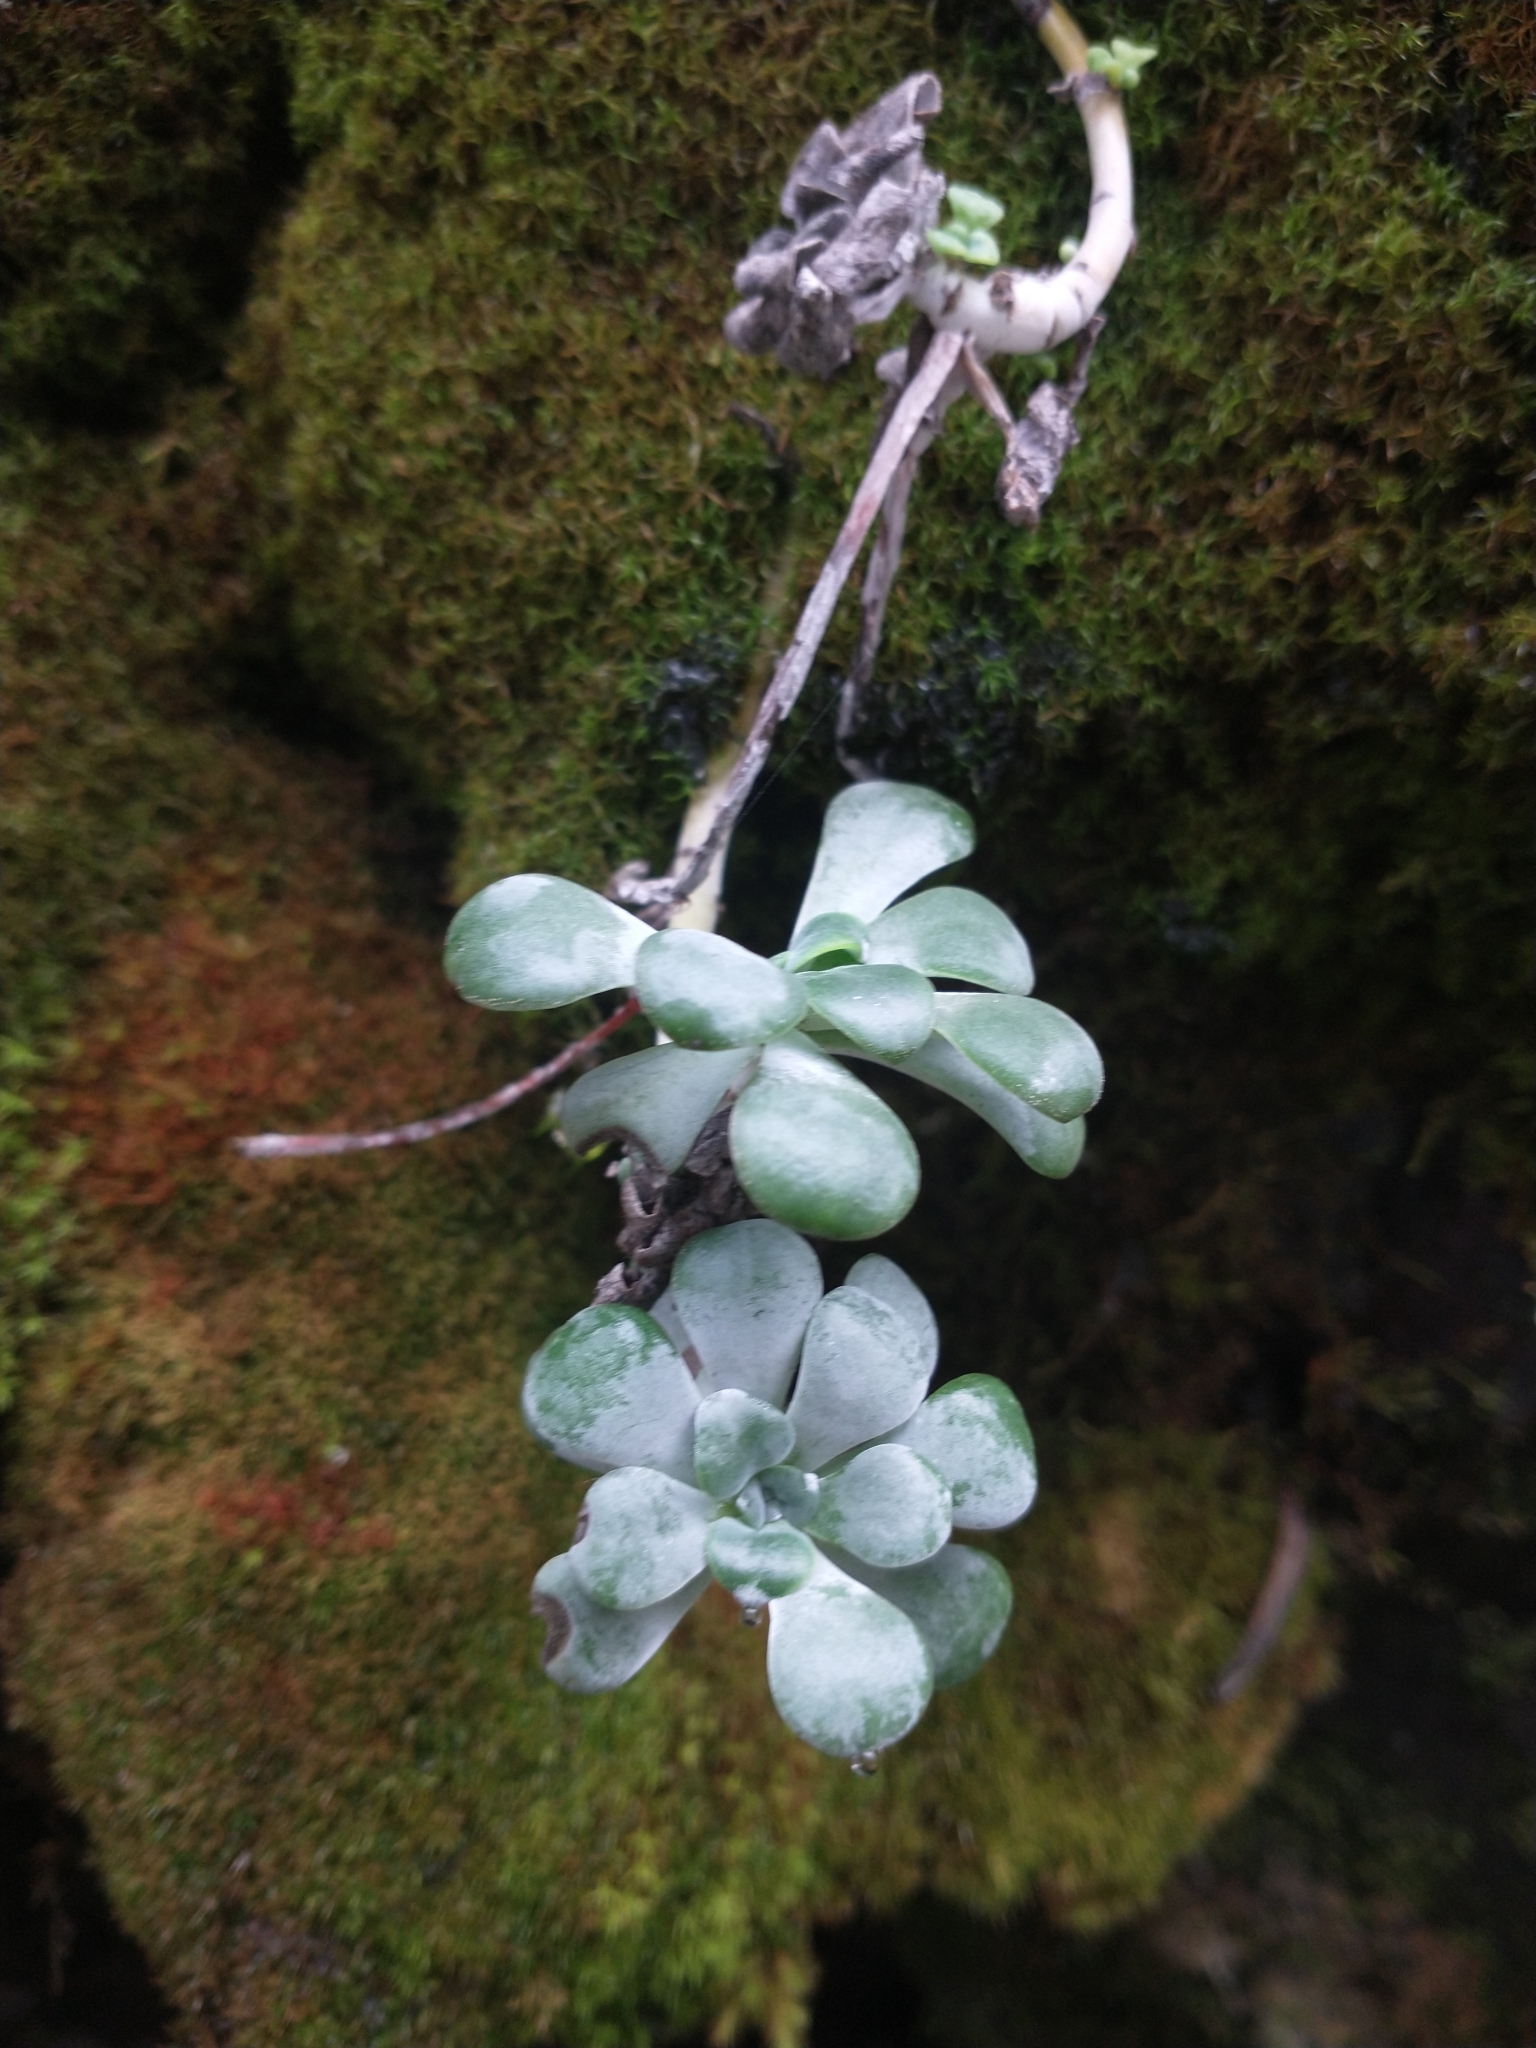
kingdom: Plantae
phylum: Tracheophyta
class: Magnoliopsida
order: Saxifragales
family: Crassulaceae
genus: Sedum
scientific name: Sedum spathulifolium
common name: Colorado stonecrop
